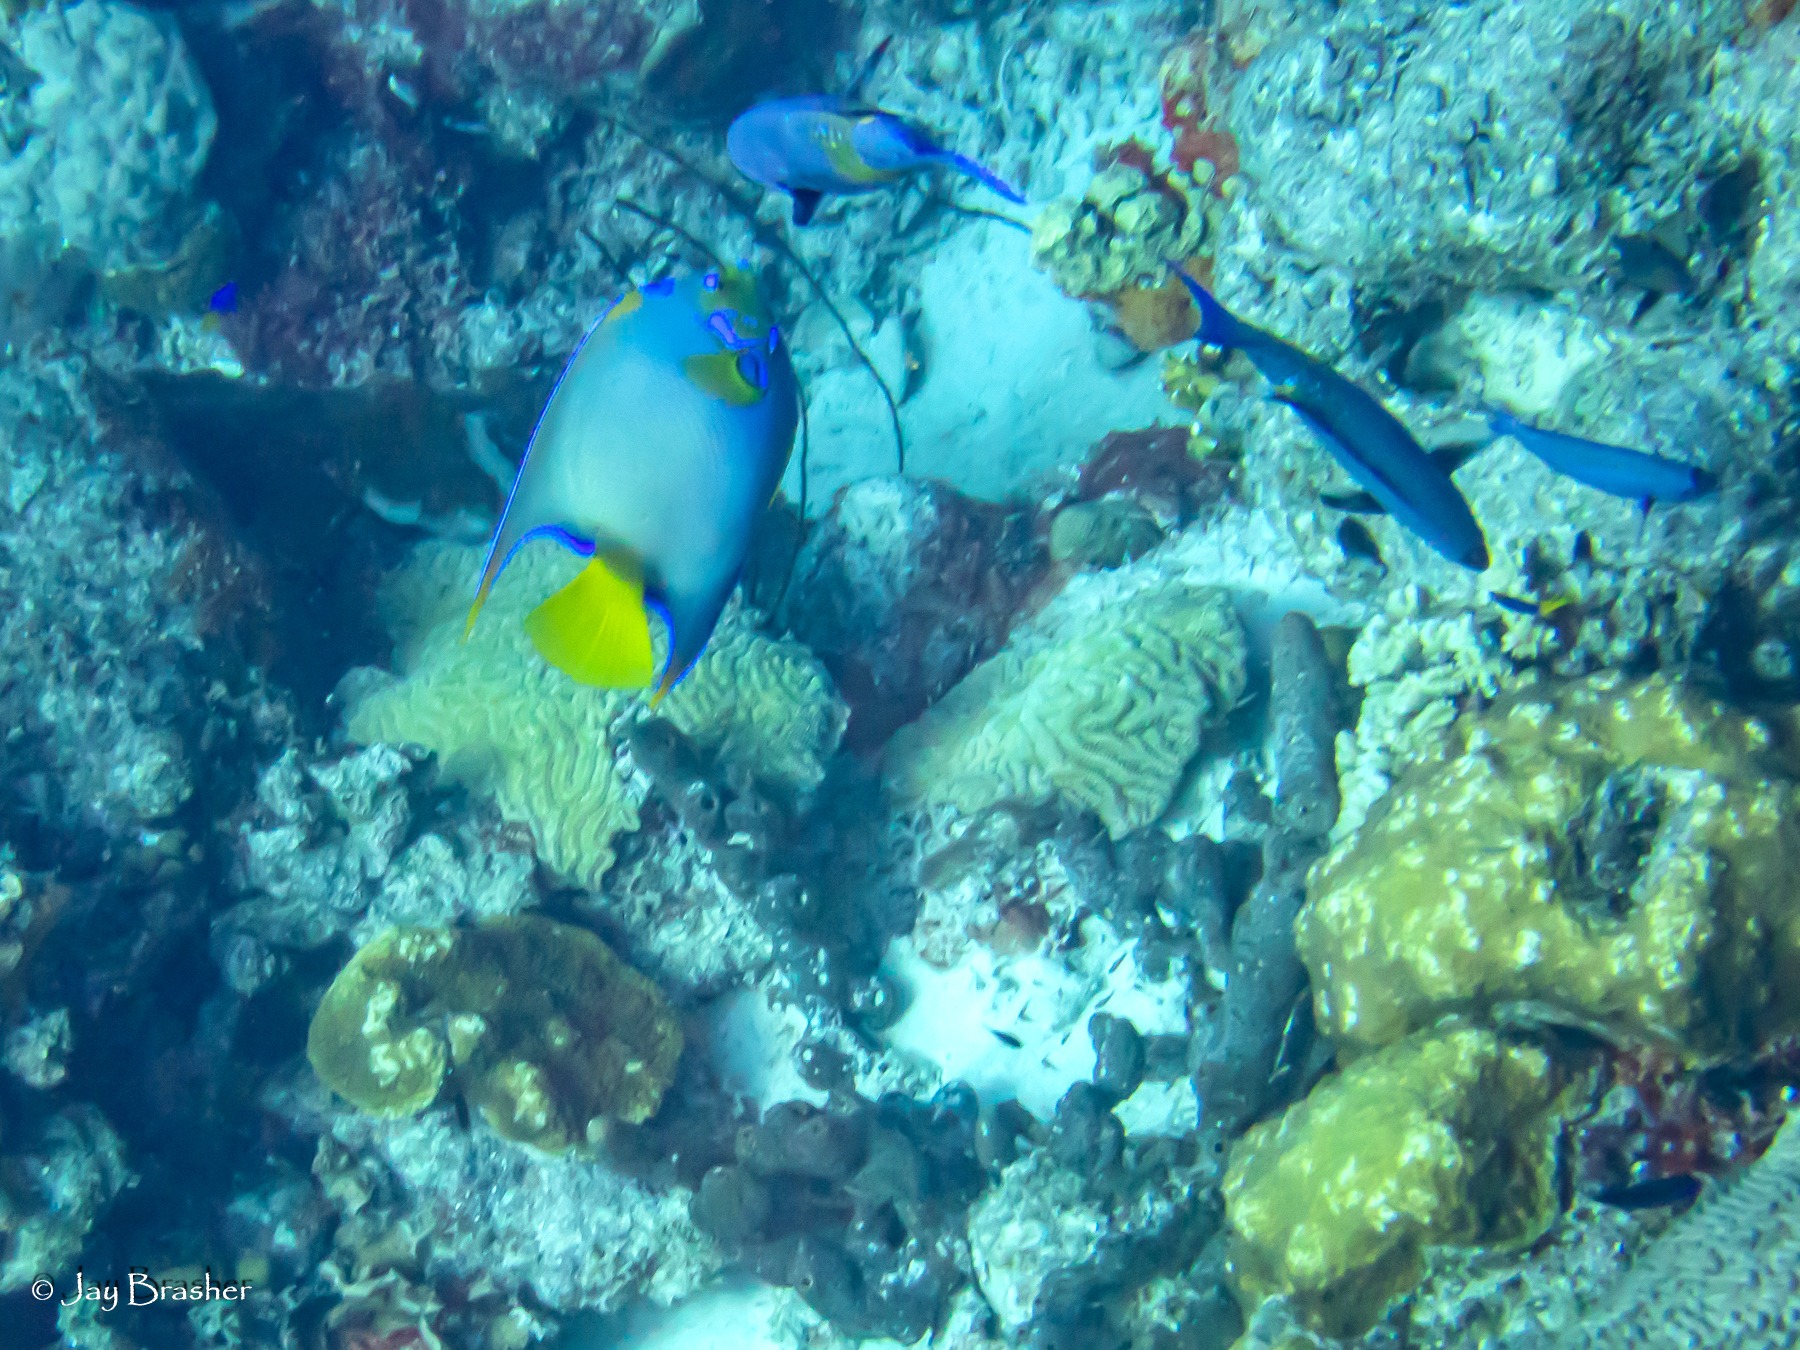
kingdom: Animalia
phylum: Chordata
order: Perciformes
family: Labridae
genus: Bodianus
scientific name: Bodianus
